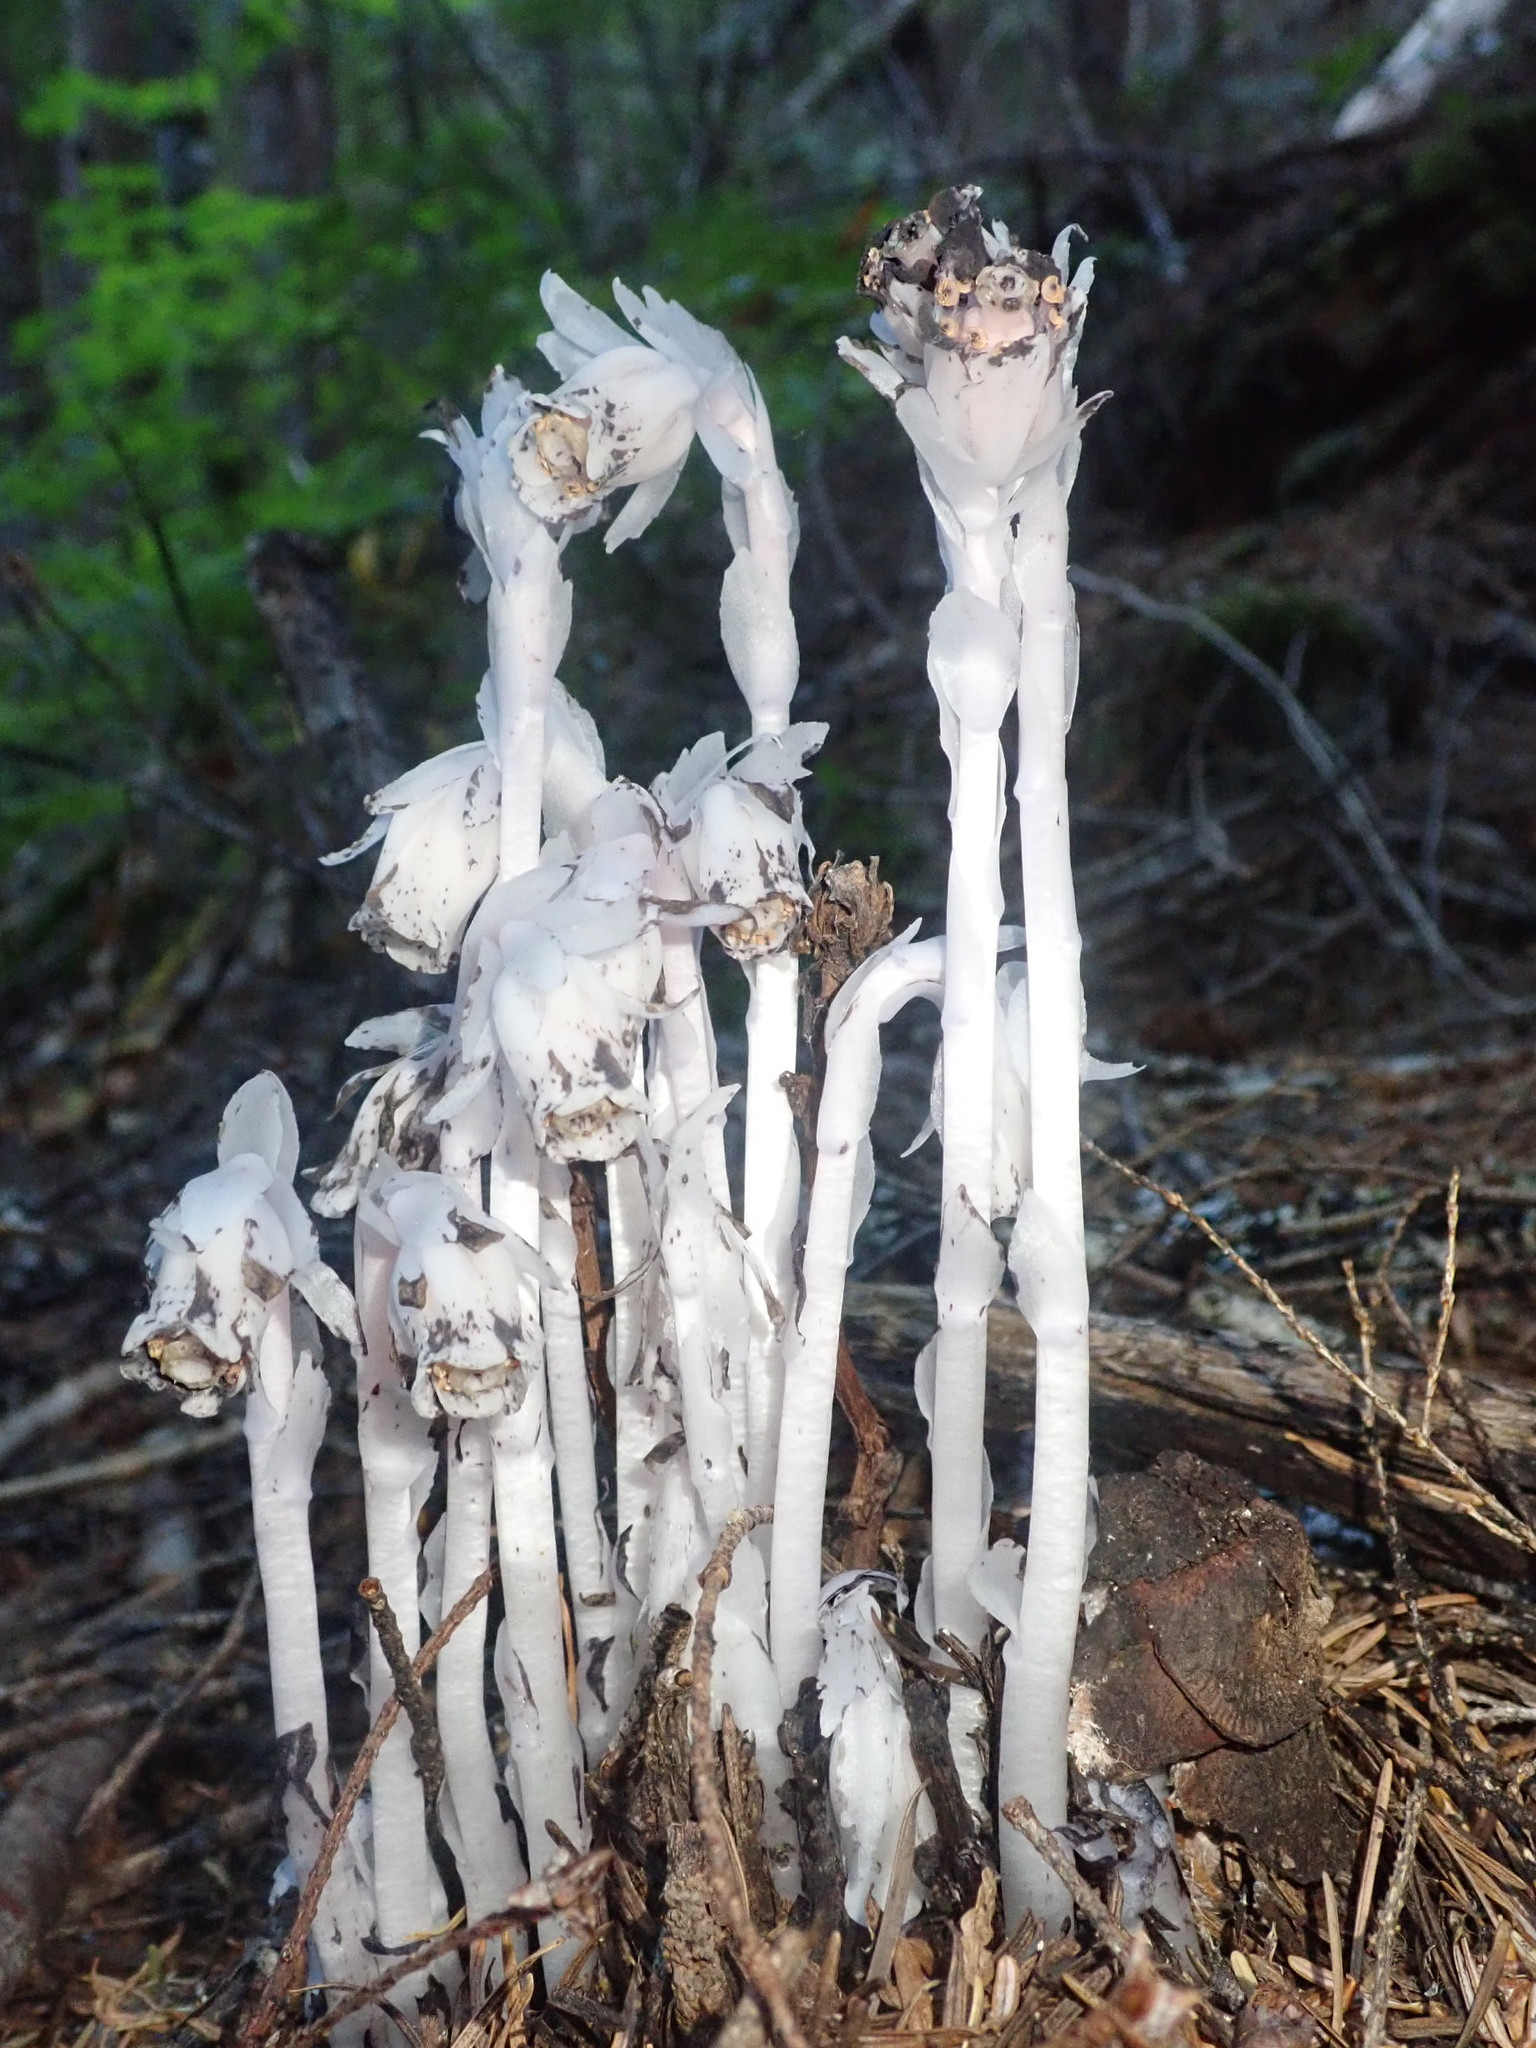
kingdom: Plantae
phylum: Tracheophyta
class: Magnoliopsida
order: Ericales
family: Ericaceae
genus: Monotropa
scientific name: Monotropa uniflora
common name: Convulsion root
